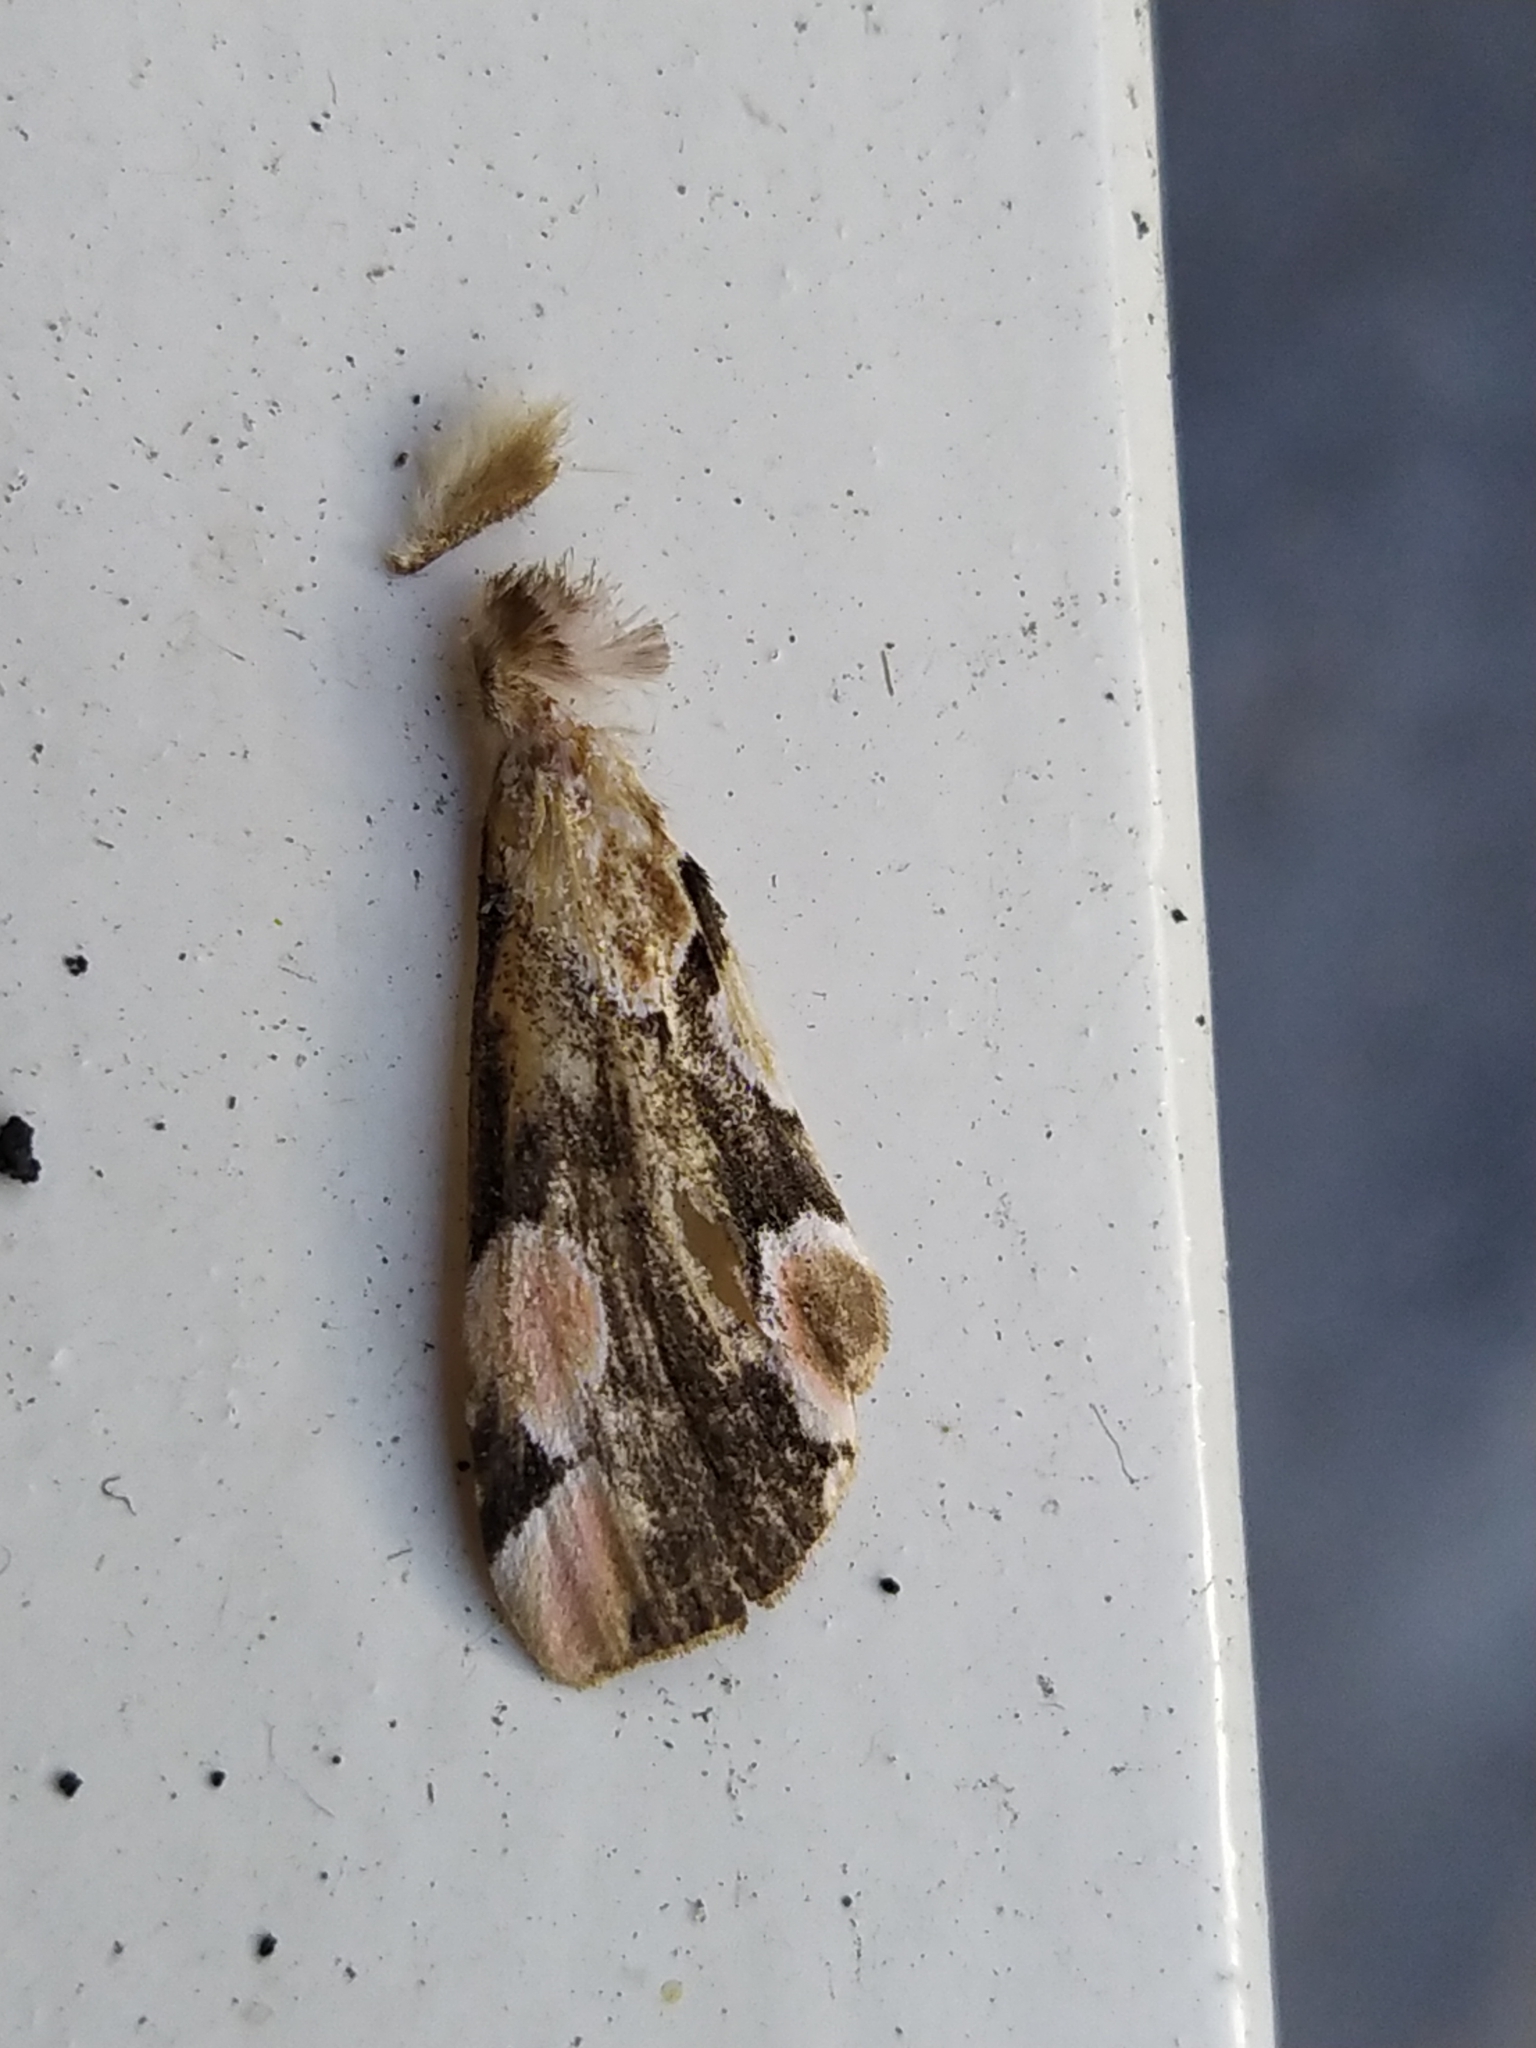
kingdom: Animalia
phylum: Arthropoda
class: Insecta
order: Lepidoptera
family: Drepanidae
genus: Thyatira
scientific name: Thyatira batis
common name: Peach blossom
